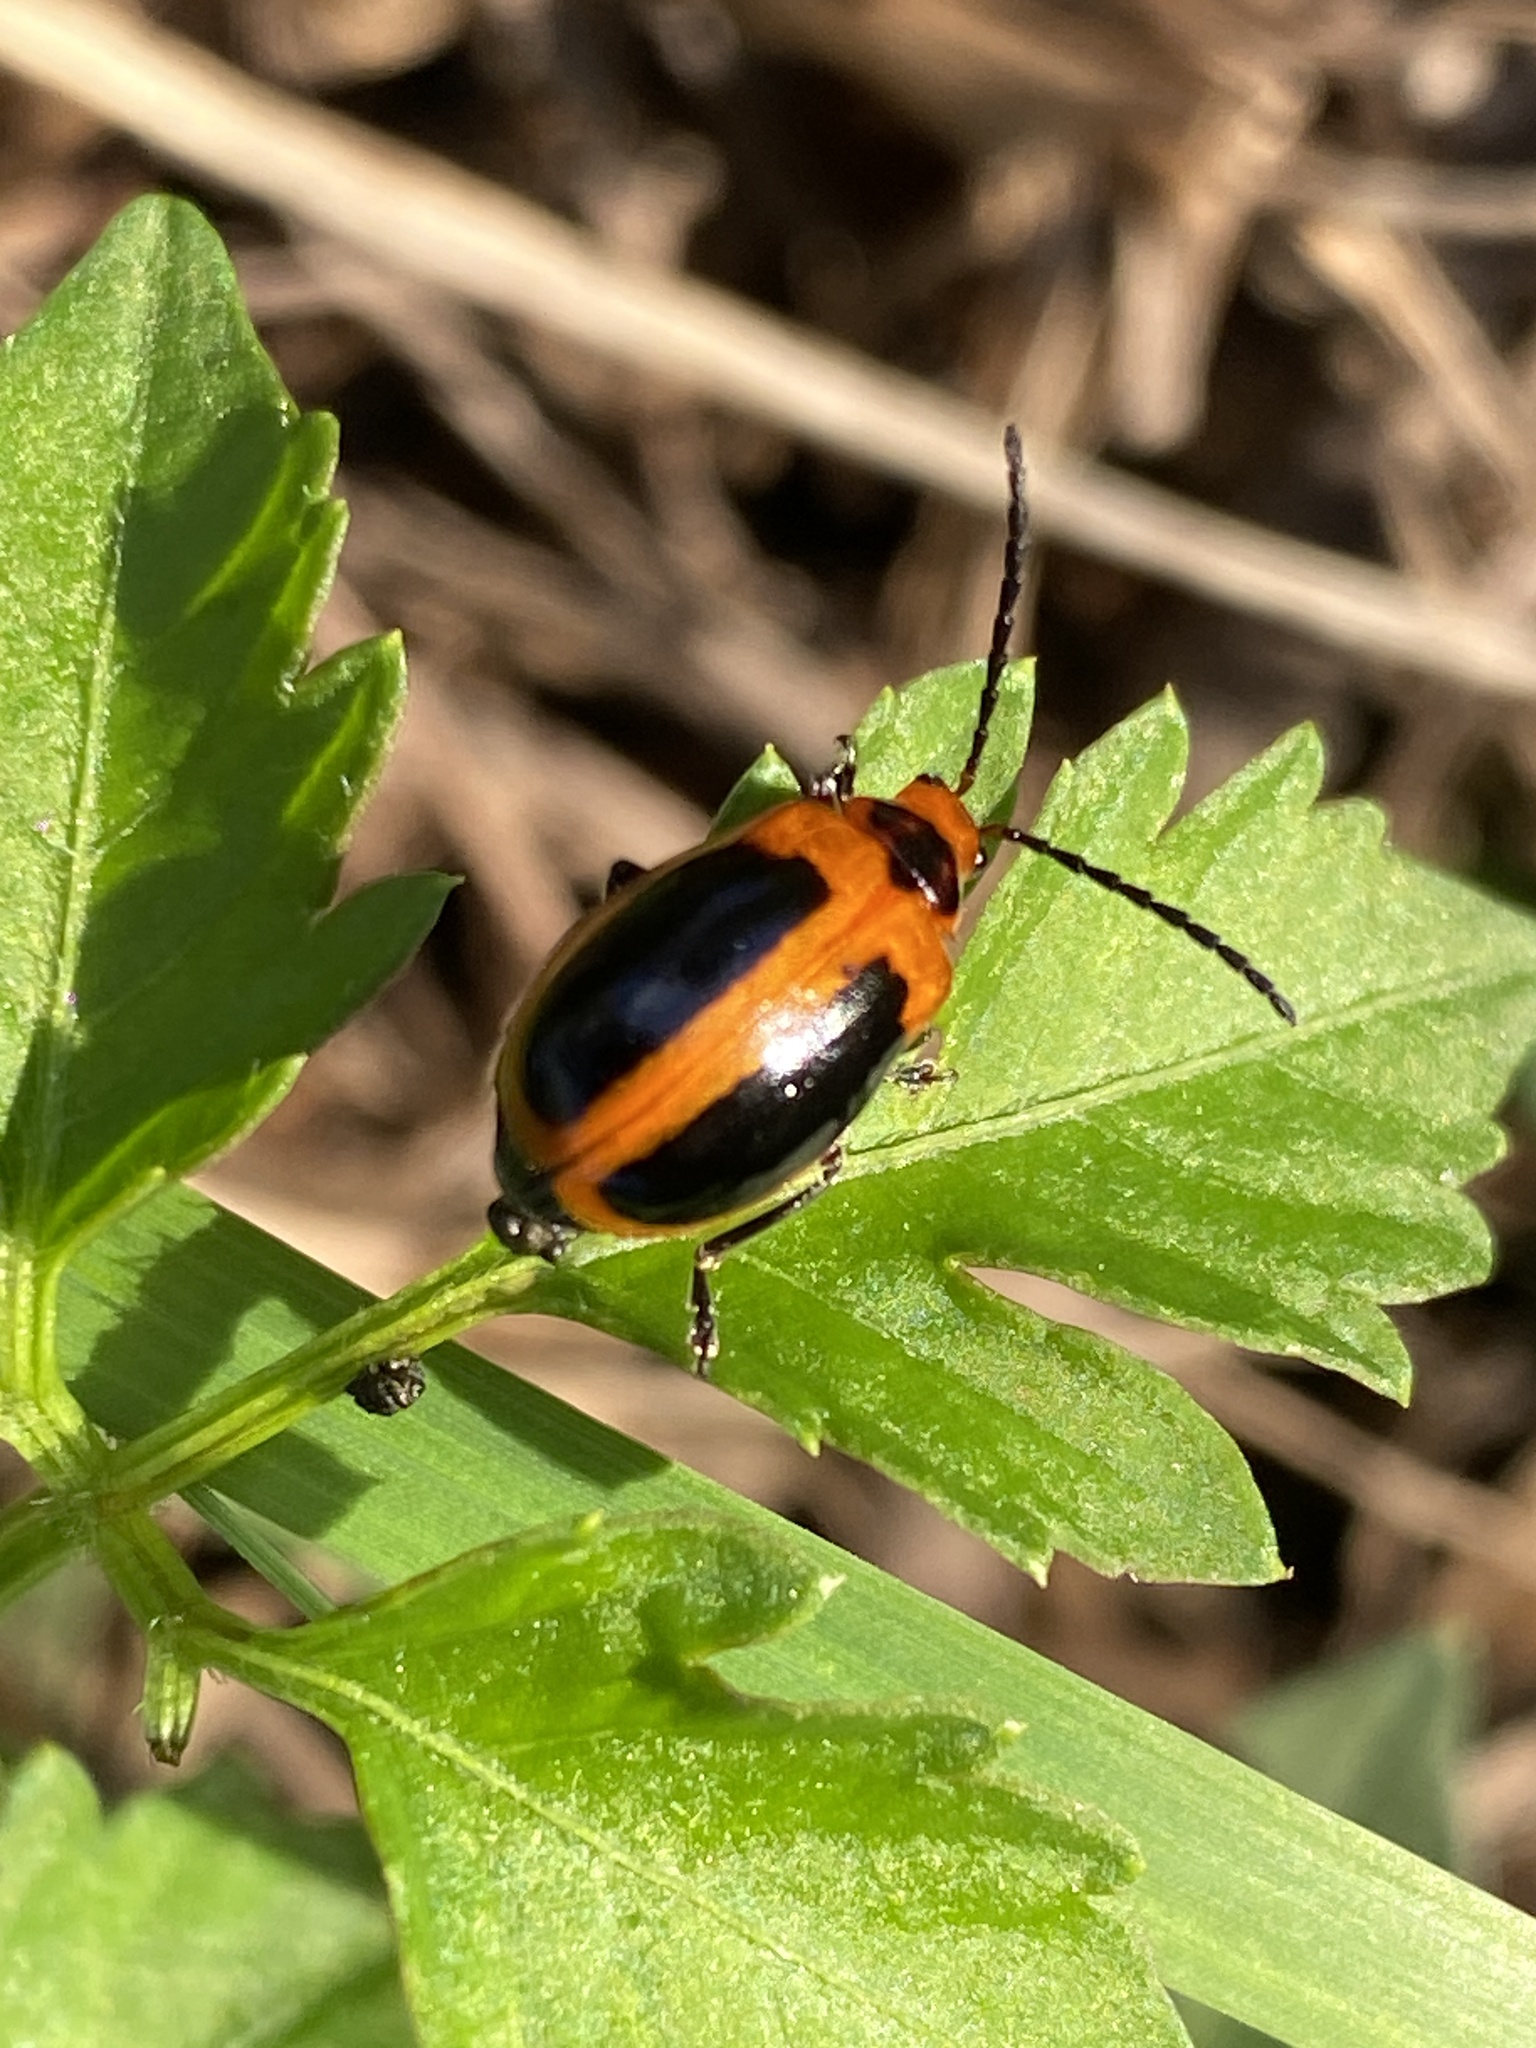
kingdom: Animalia
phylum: Arthropoda
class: Insecta
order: Coleoptera
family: Chrysomelidae
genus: Oides
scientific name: Oides
